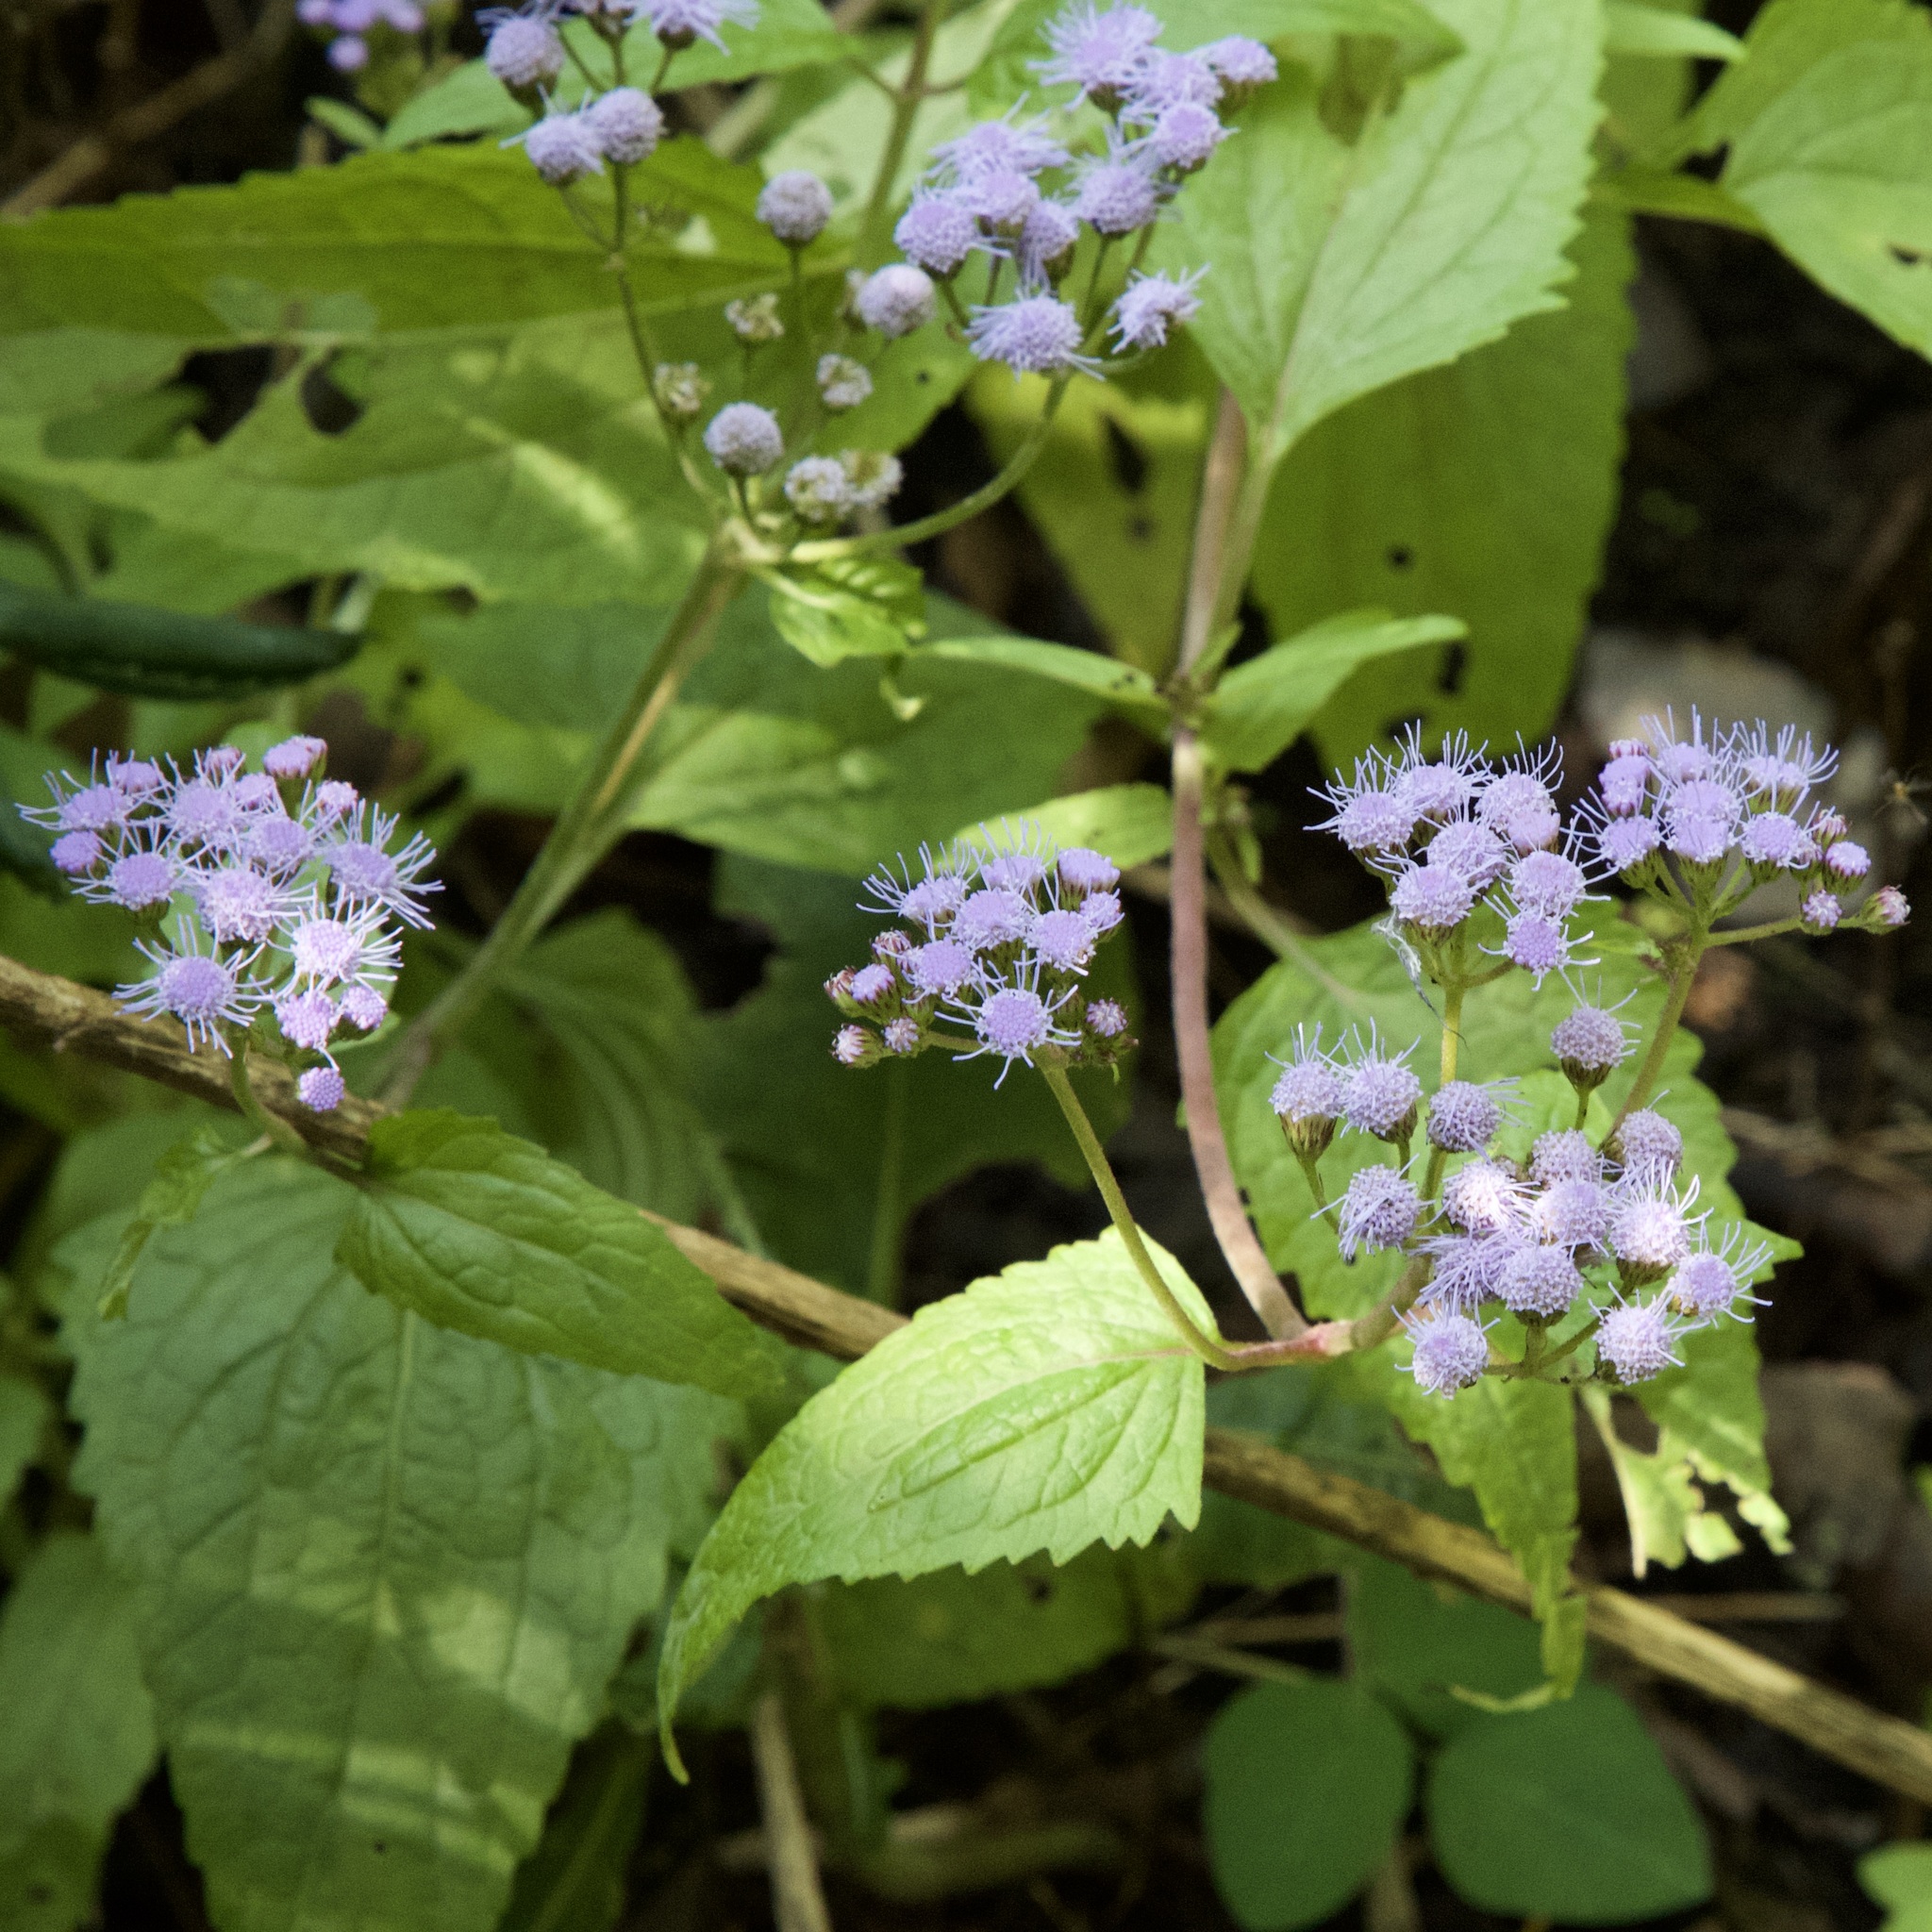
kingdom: Plantae
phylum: Tracheophyta
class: Magnoliopsida
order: Asterales
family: Asteraceae
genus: Conoclinium
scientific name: Conoclinium coelestinum
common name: Blue mistflower
